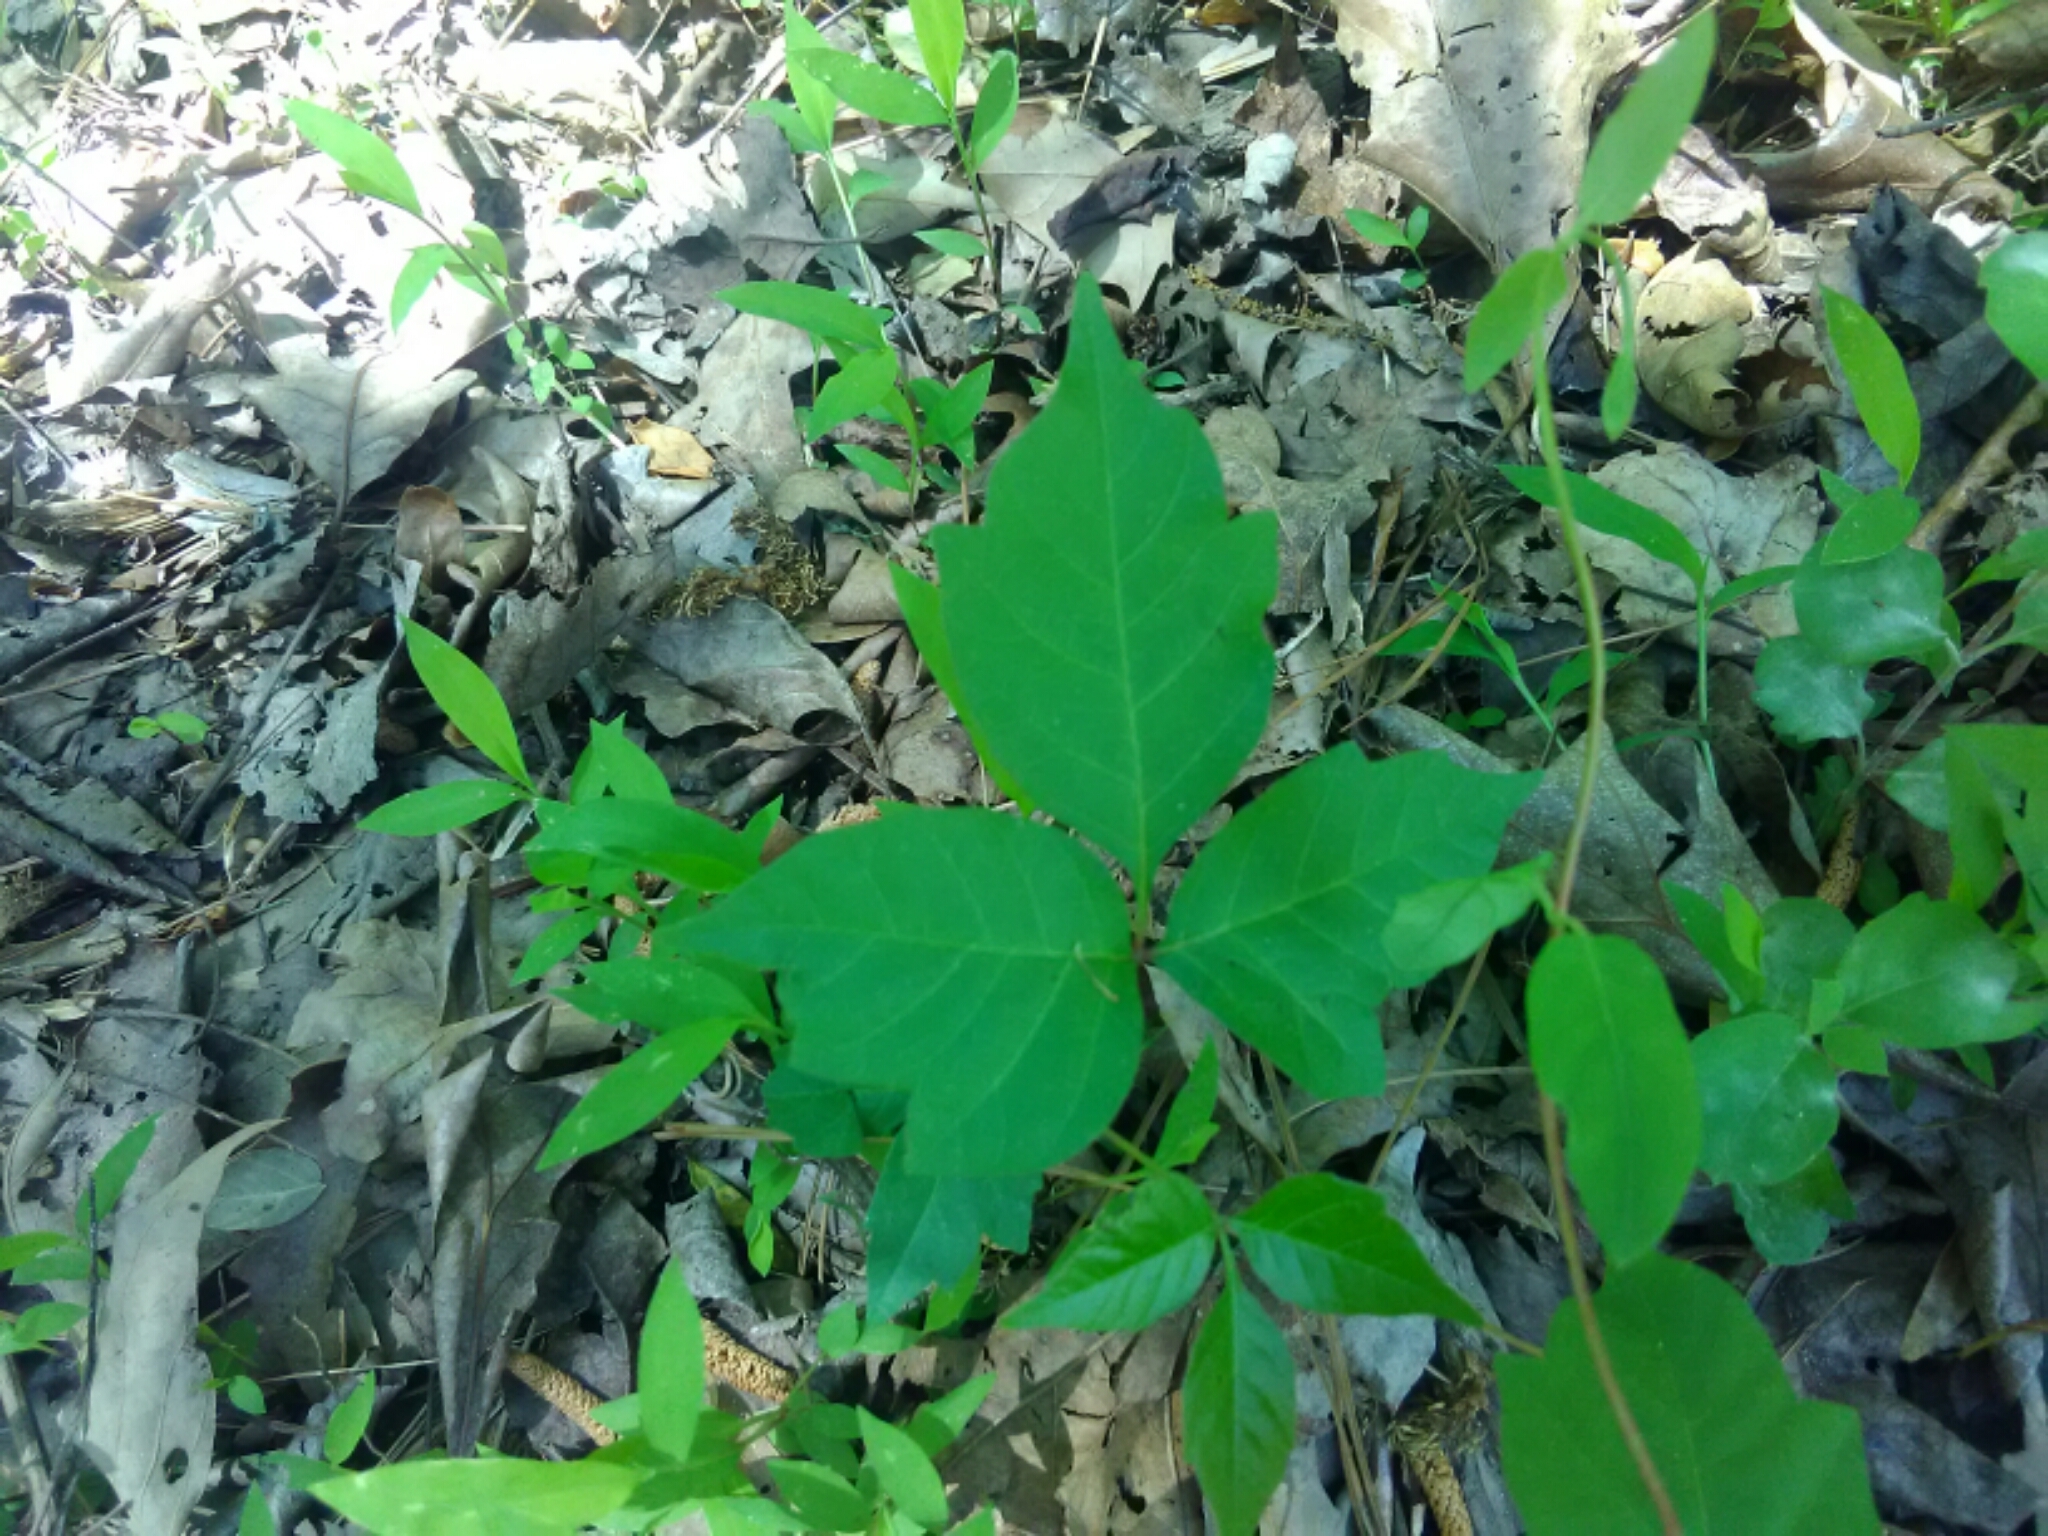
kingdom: Plantae
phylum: Tracheophyta
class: Magnoliopsida
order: Sapindales
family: Anacardiaceae
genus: Toxicodendron
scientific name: Toxicodendron radicans
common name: Poison ivy
